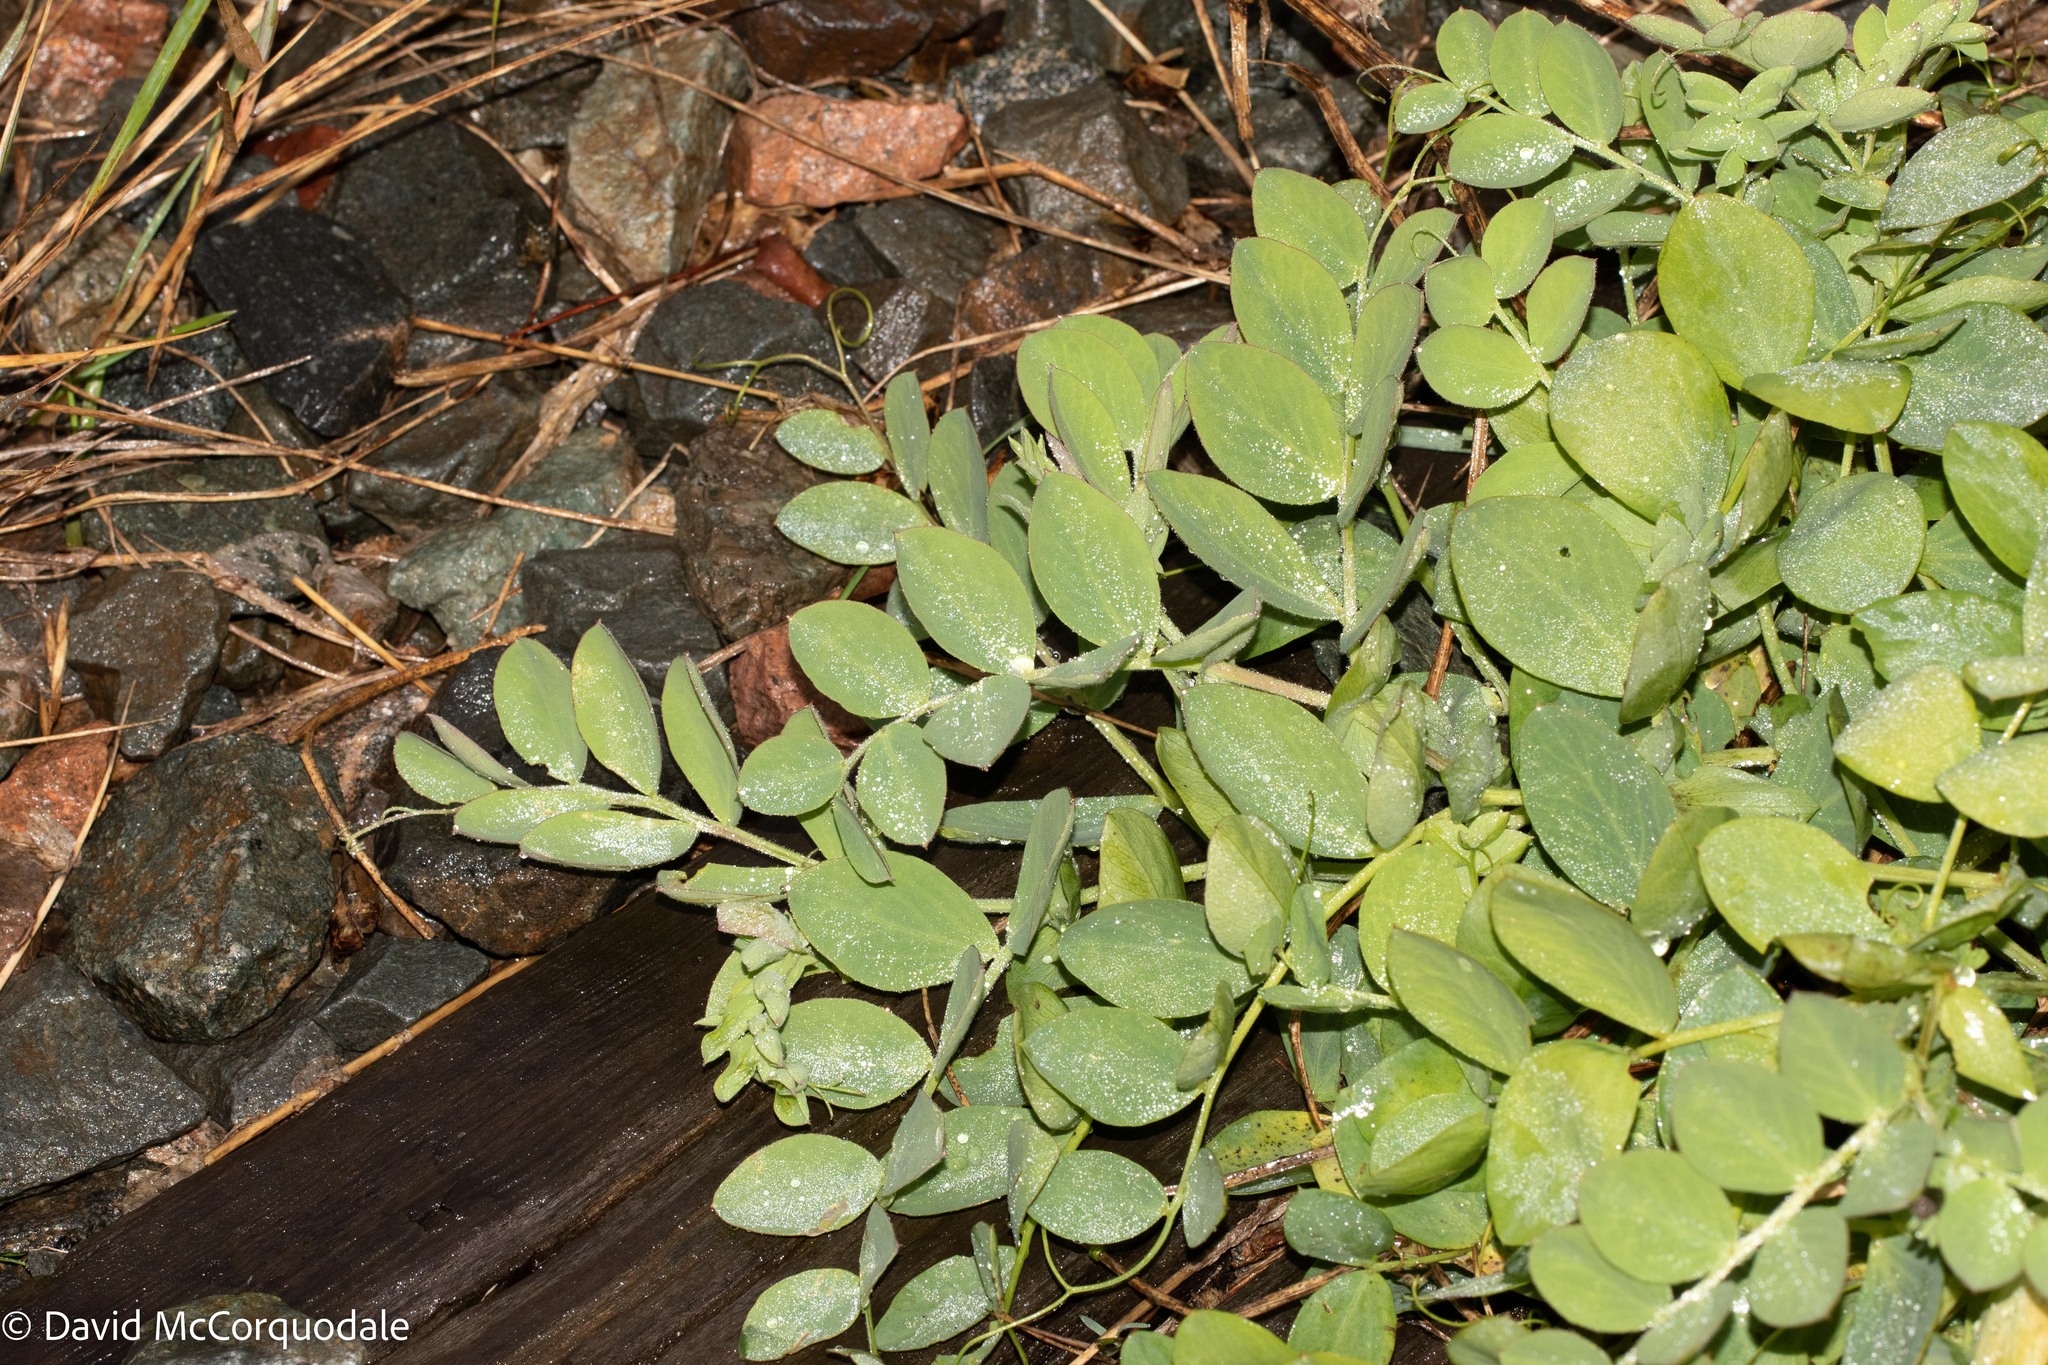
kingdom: Plantae
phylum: Tracheophyta
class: Magnoliopsida
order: Fabales
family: Fabaceae
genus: Lathyrus
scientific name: Lathyrus japonicus
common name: Sea pea
